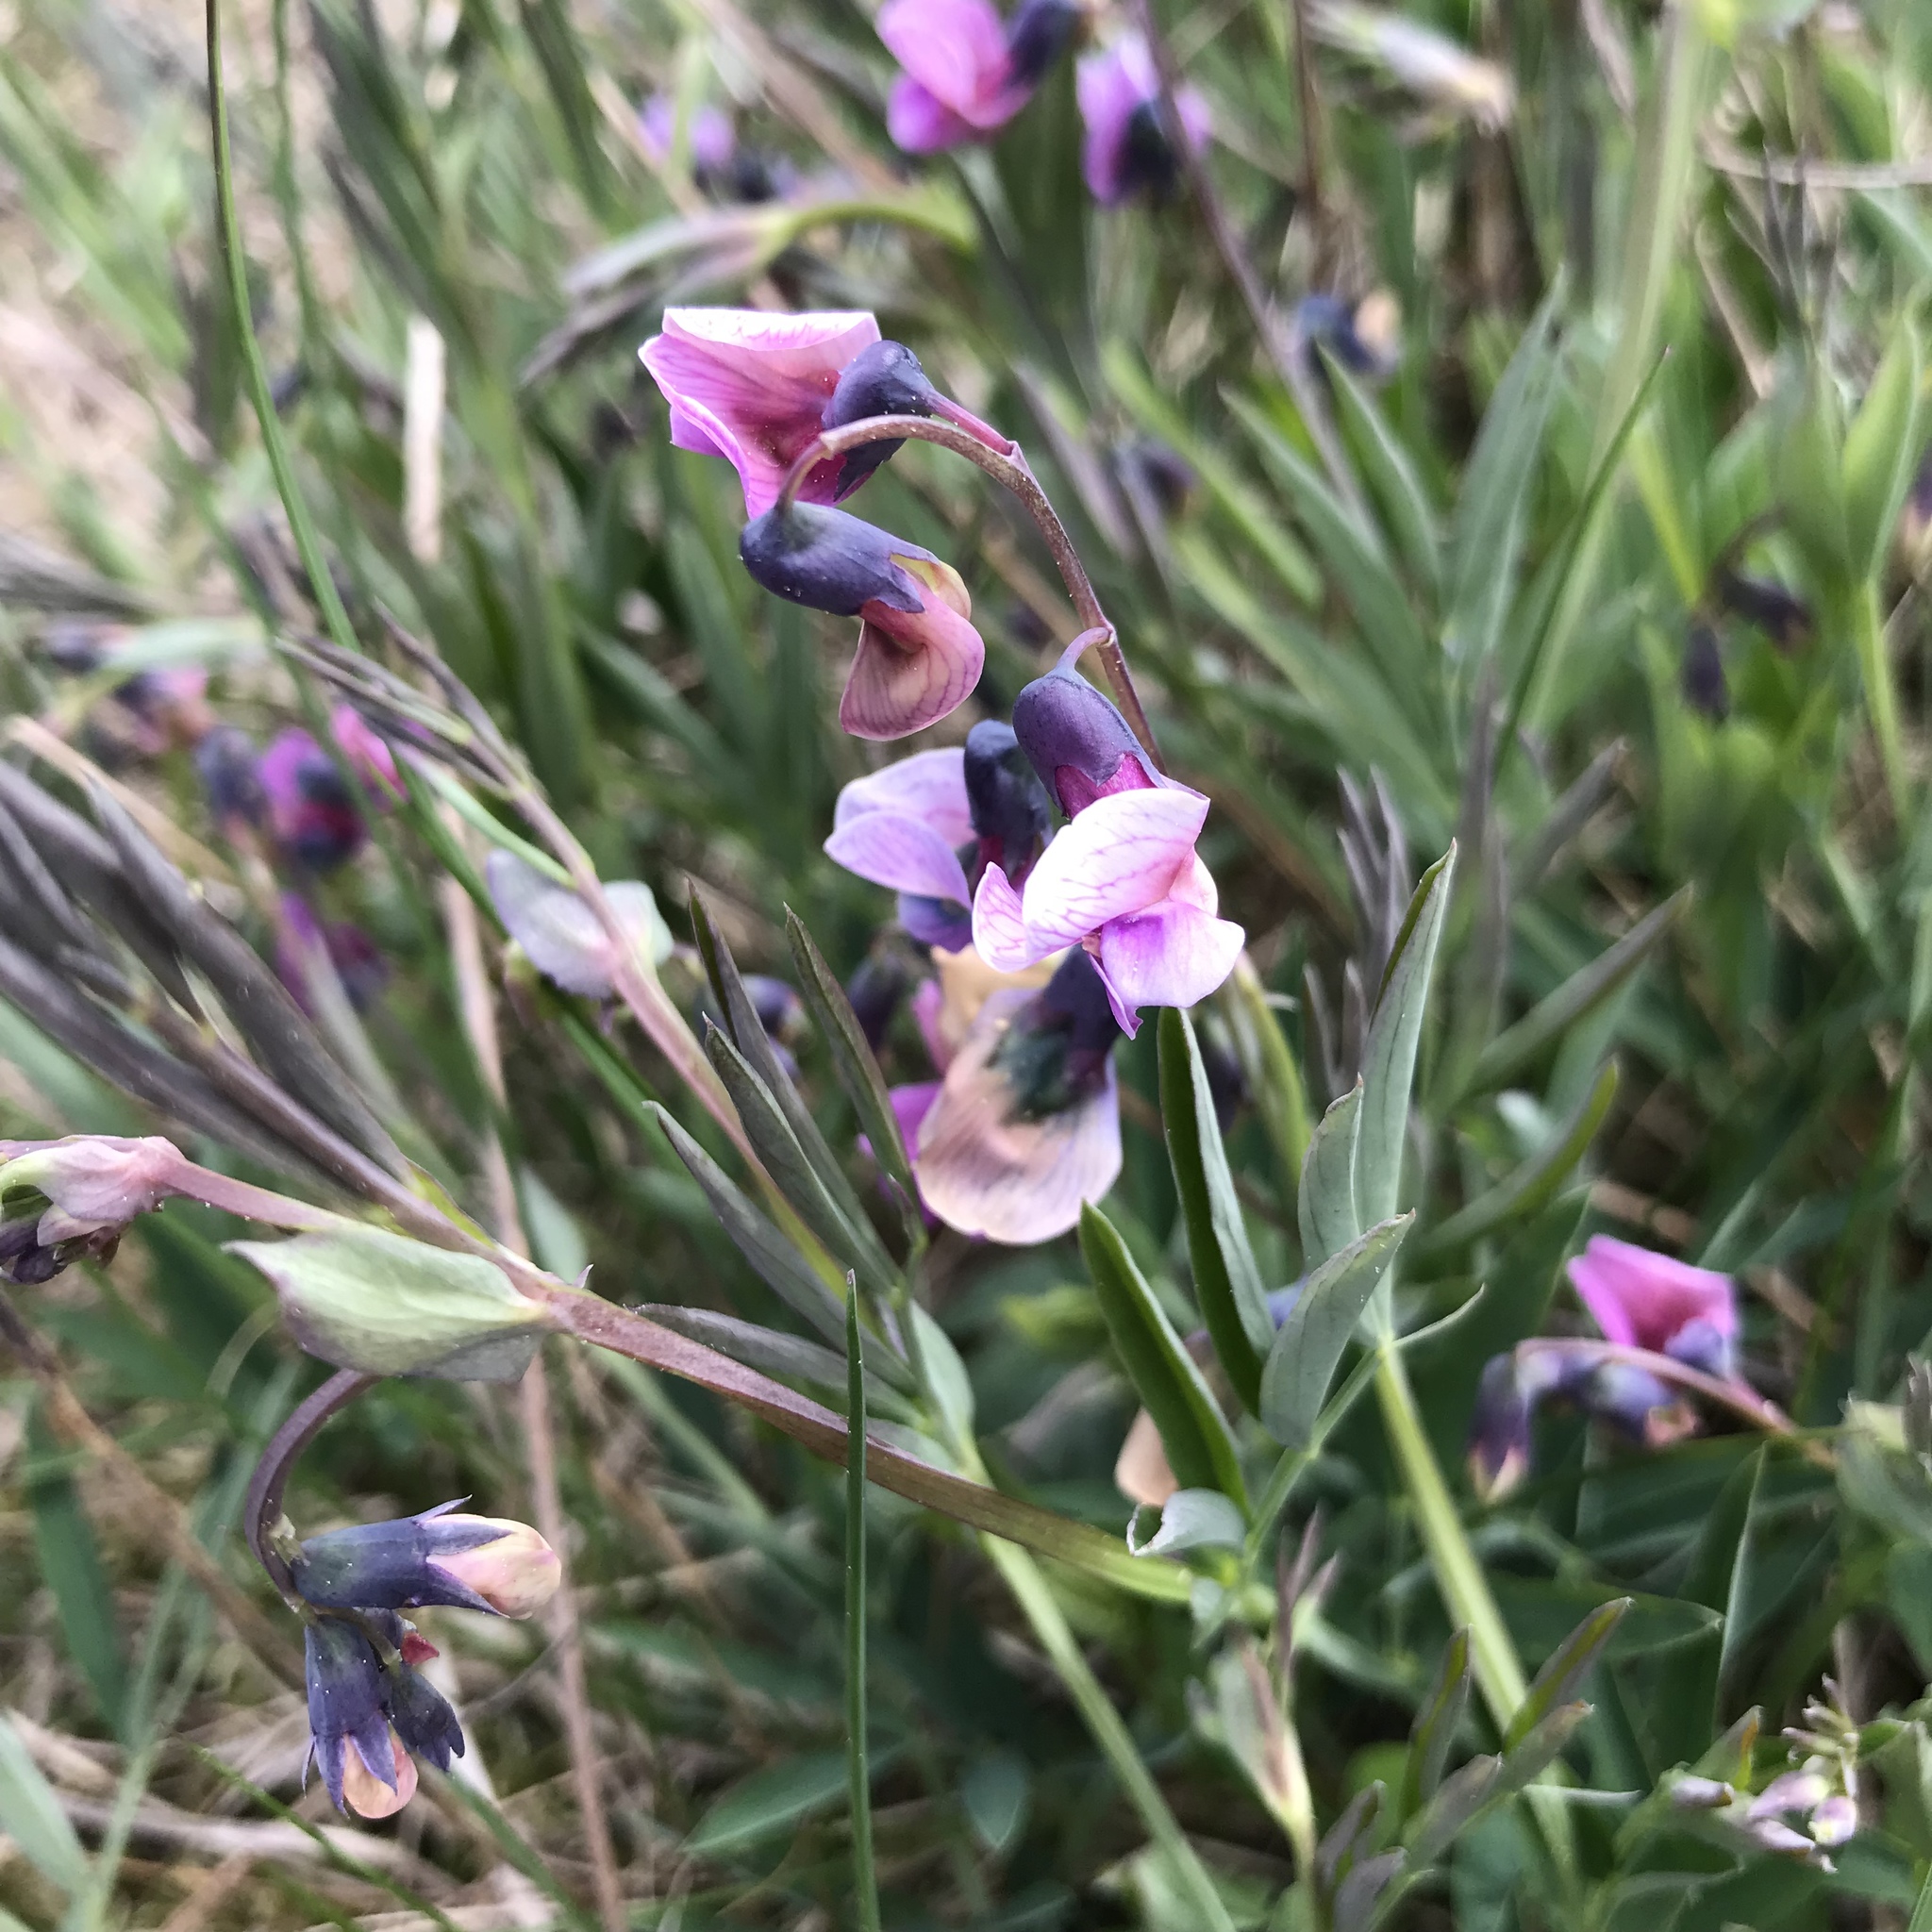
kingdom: Plantae
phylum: Tracheophyta
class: Magnoliopsida
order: Fabales
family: Fabaceae
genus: Lathyrus
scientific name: Lathyrus linifolius
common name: Bitter-vetch
